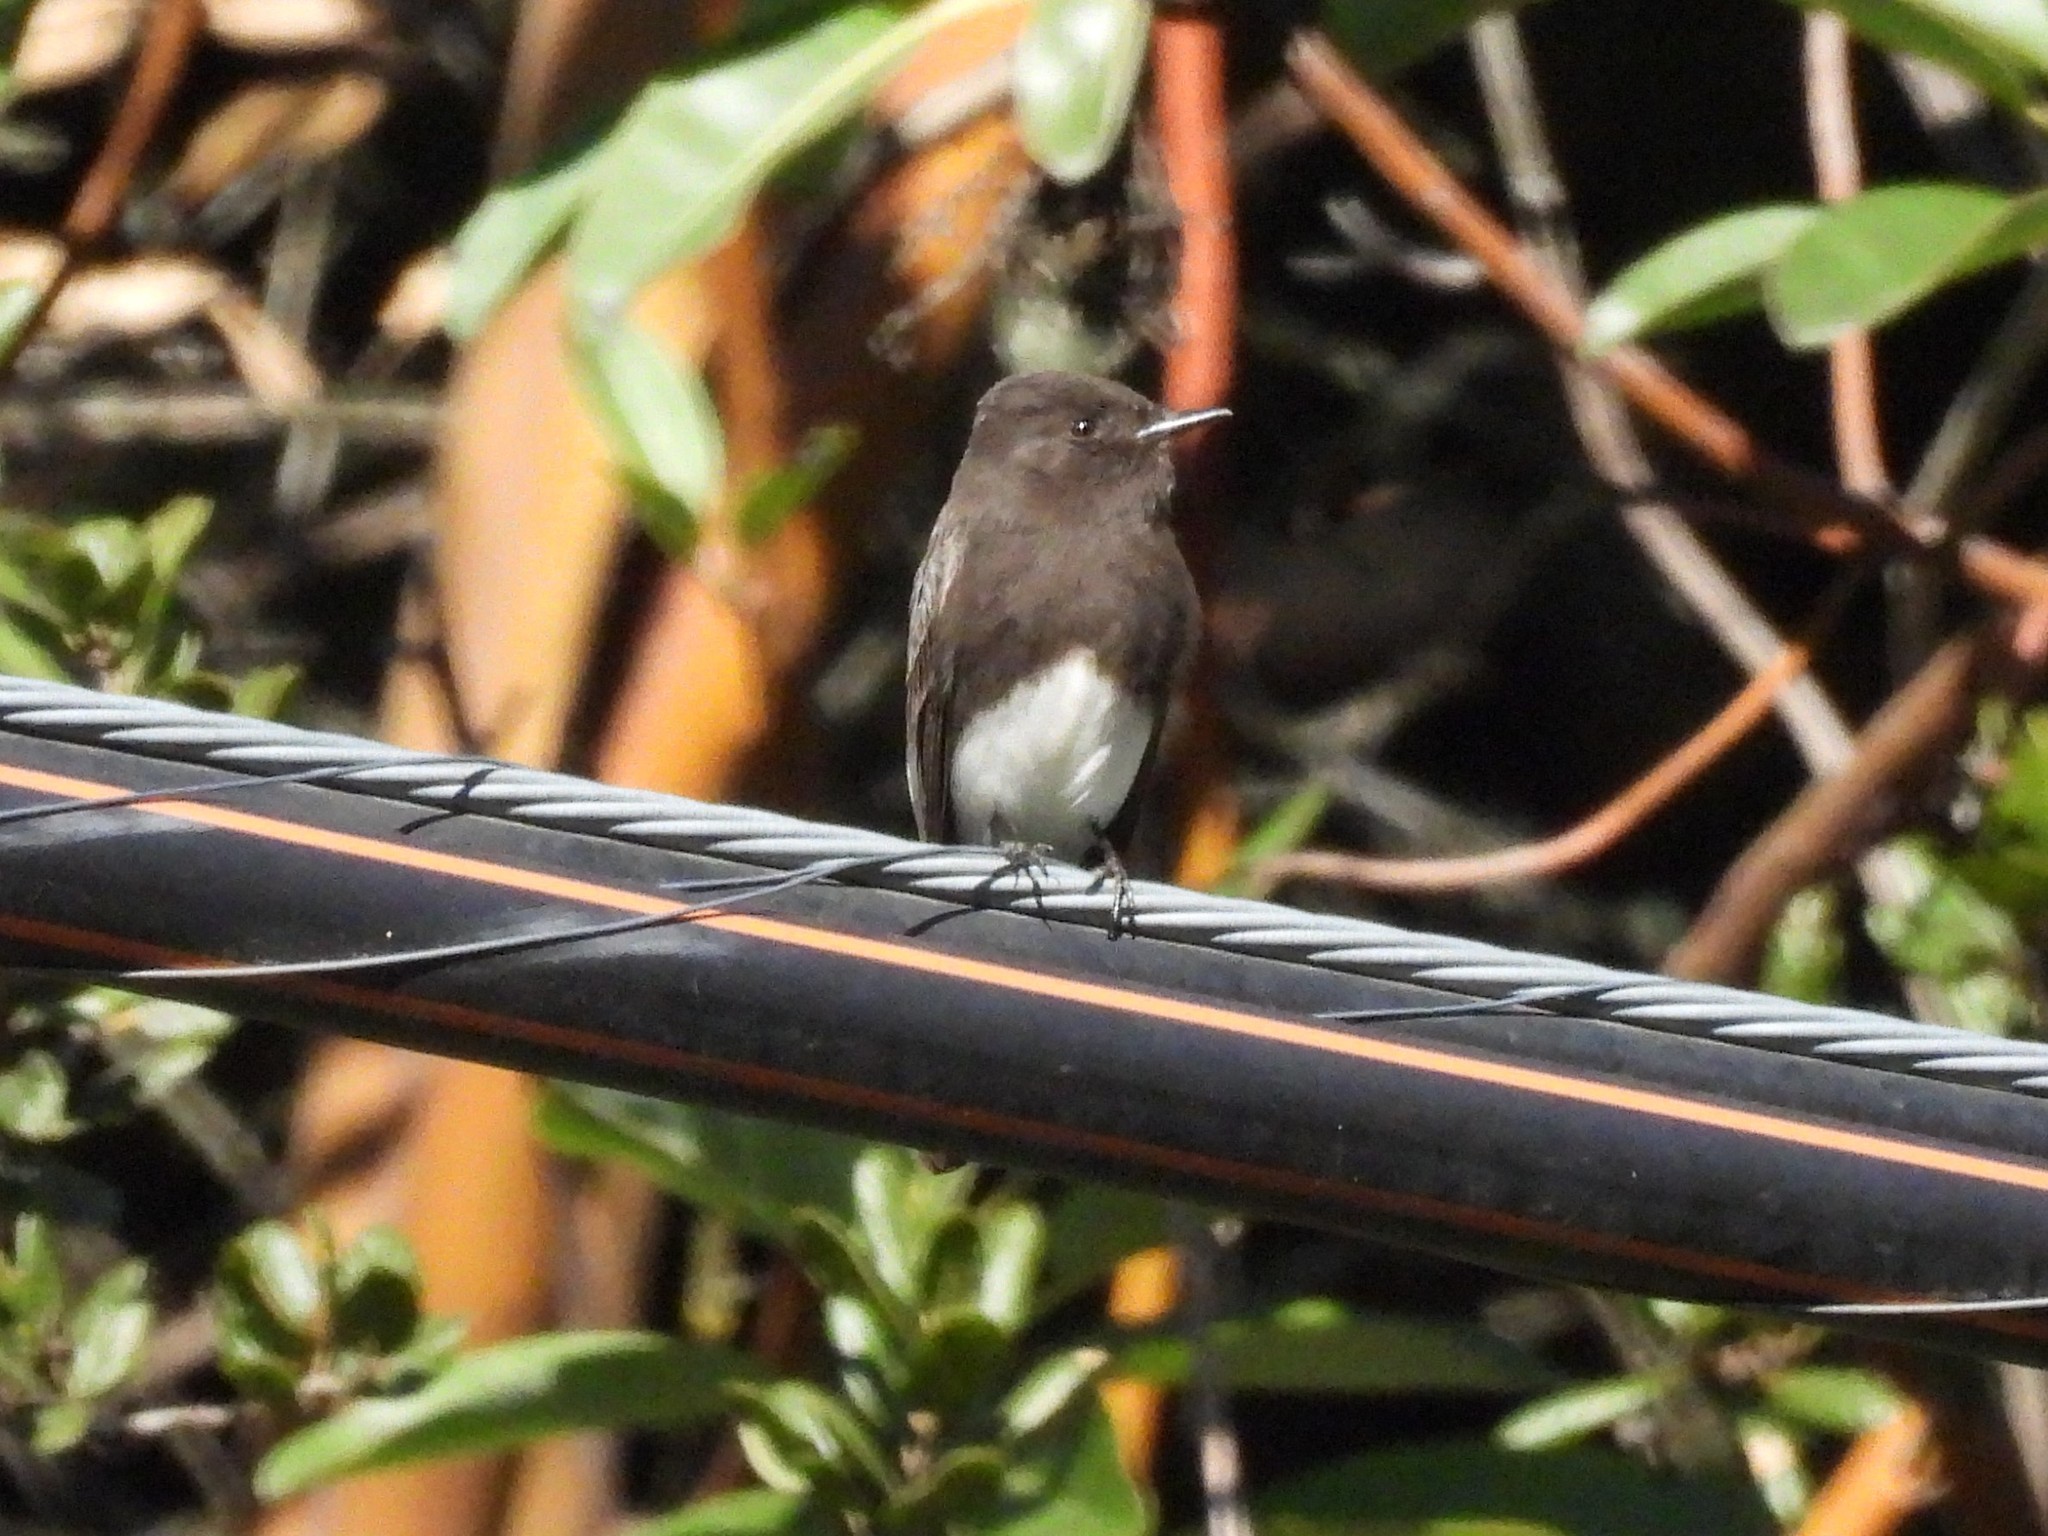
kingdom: Animalia
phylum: Chordata
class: Aves
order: Passeriformes
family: Tyrannidae
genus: Sayornis
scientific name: Sayornis nigricans
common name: Black phoebe
